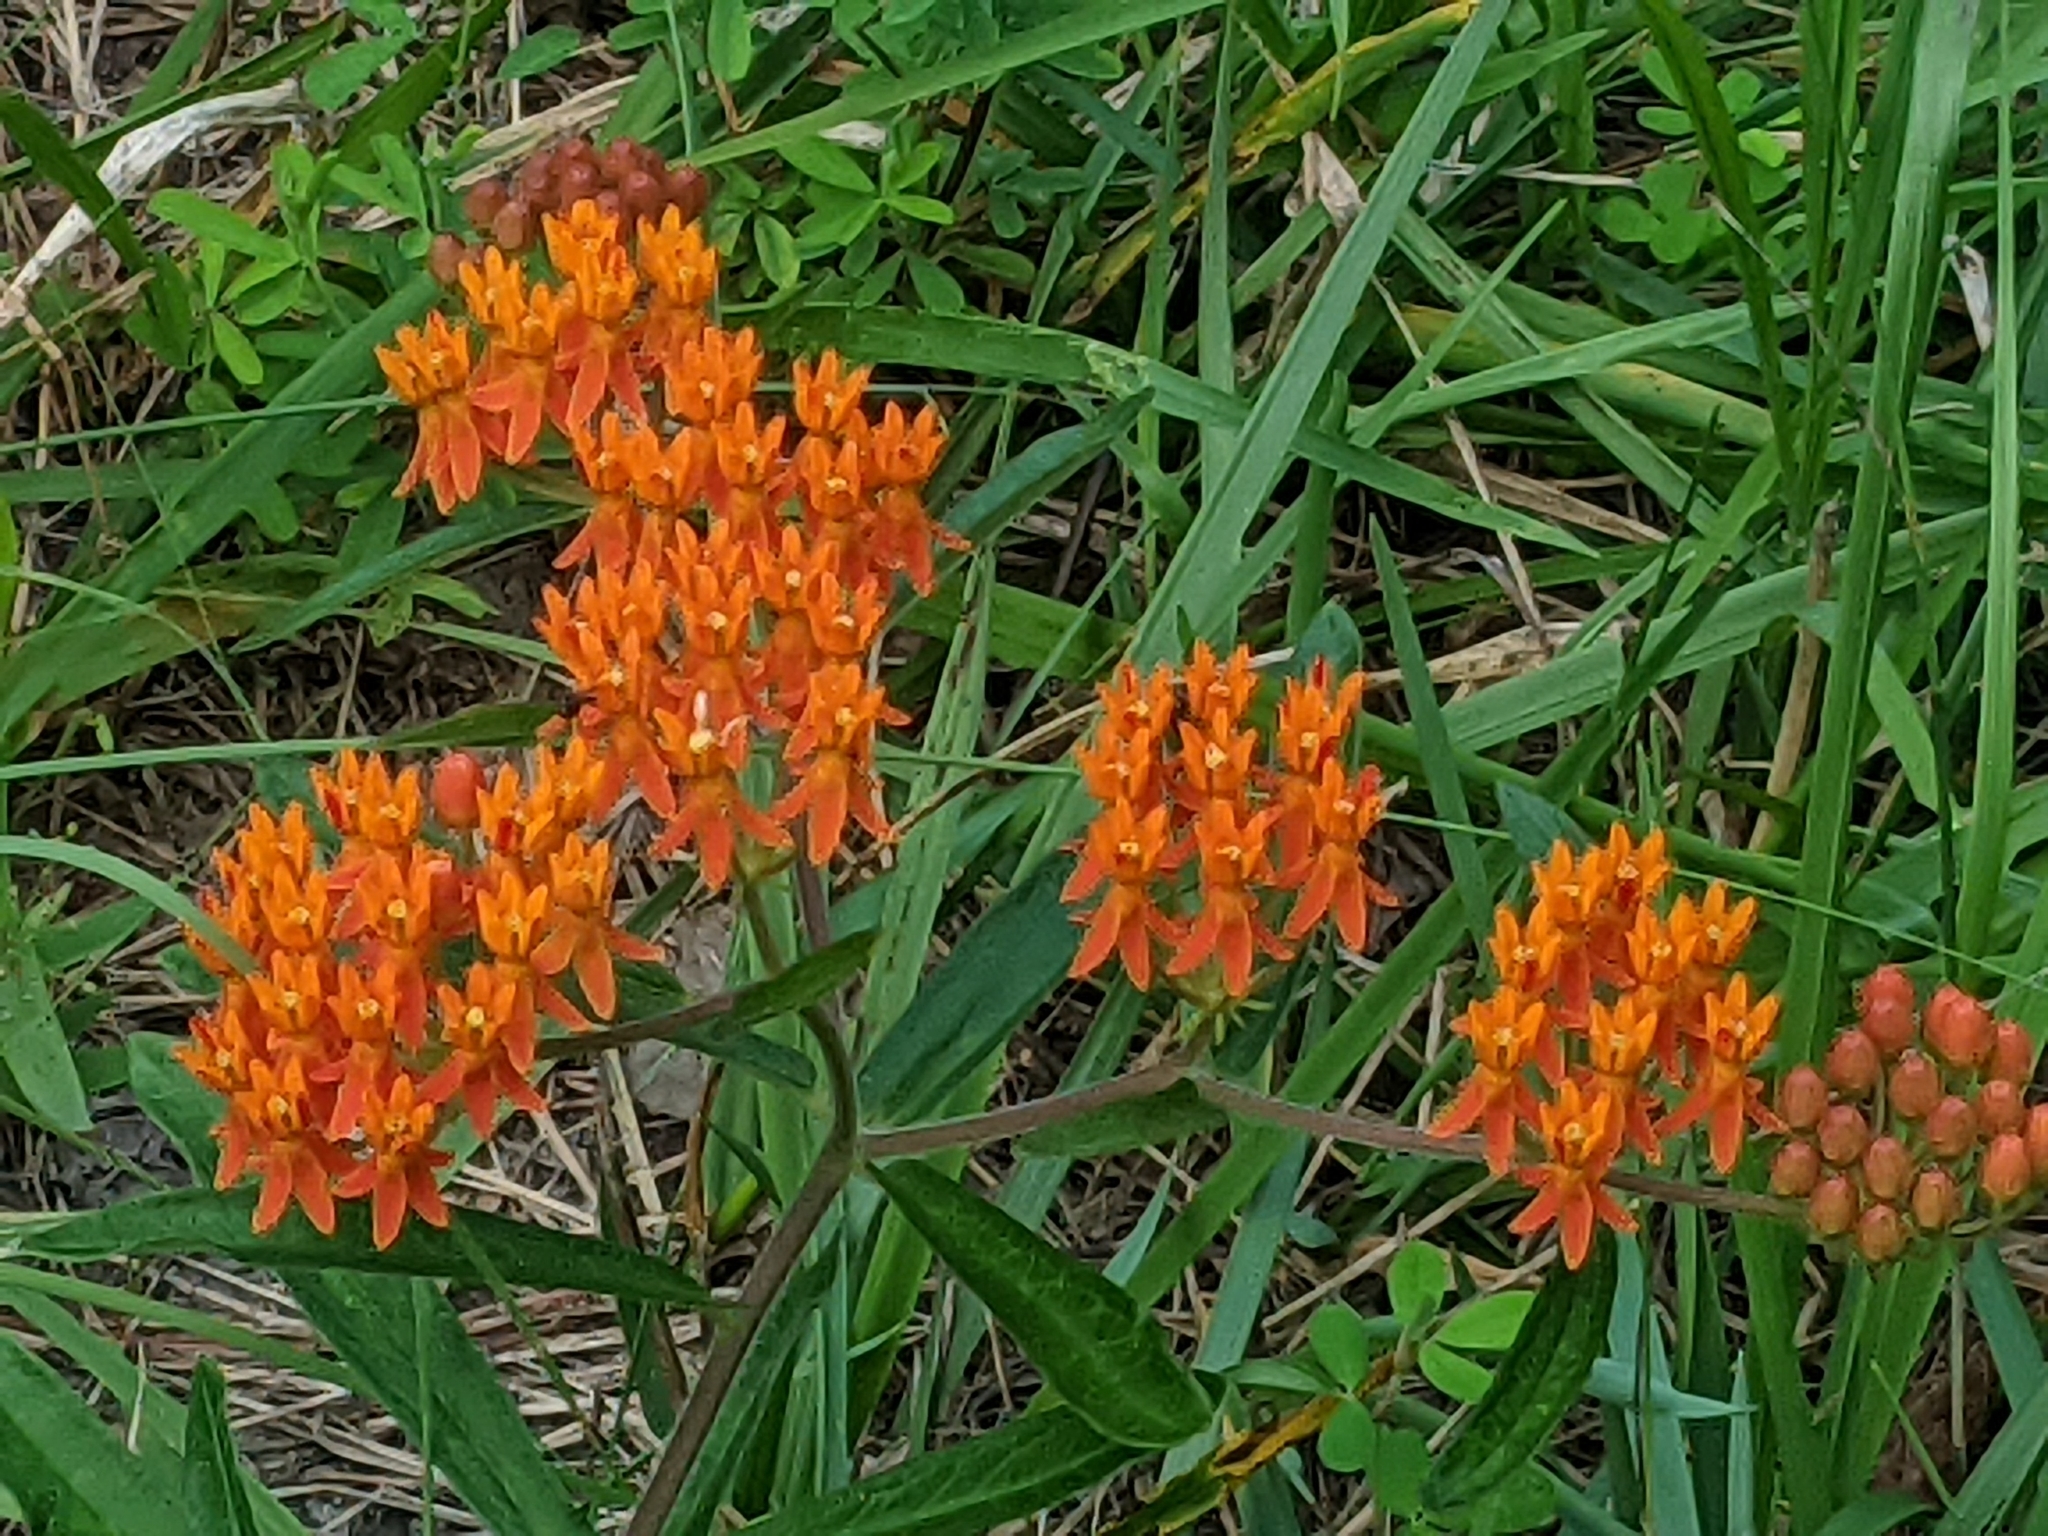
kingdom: Plantae
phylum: Tracheophyta
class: Magnoliopsida
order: Gentianales
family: Apocynaceae
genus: Asclepias
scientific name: Asclepias tuberosa
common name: Butterfly milkweed
